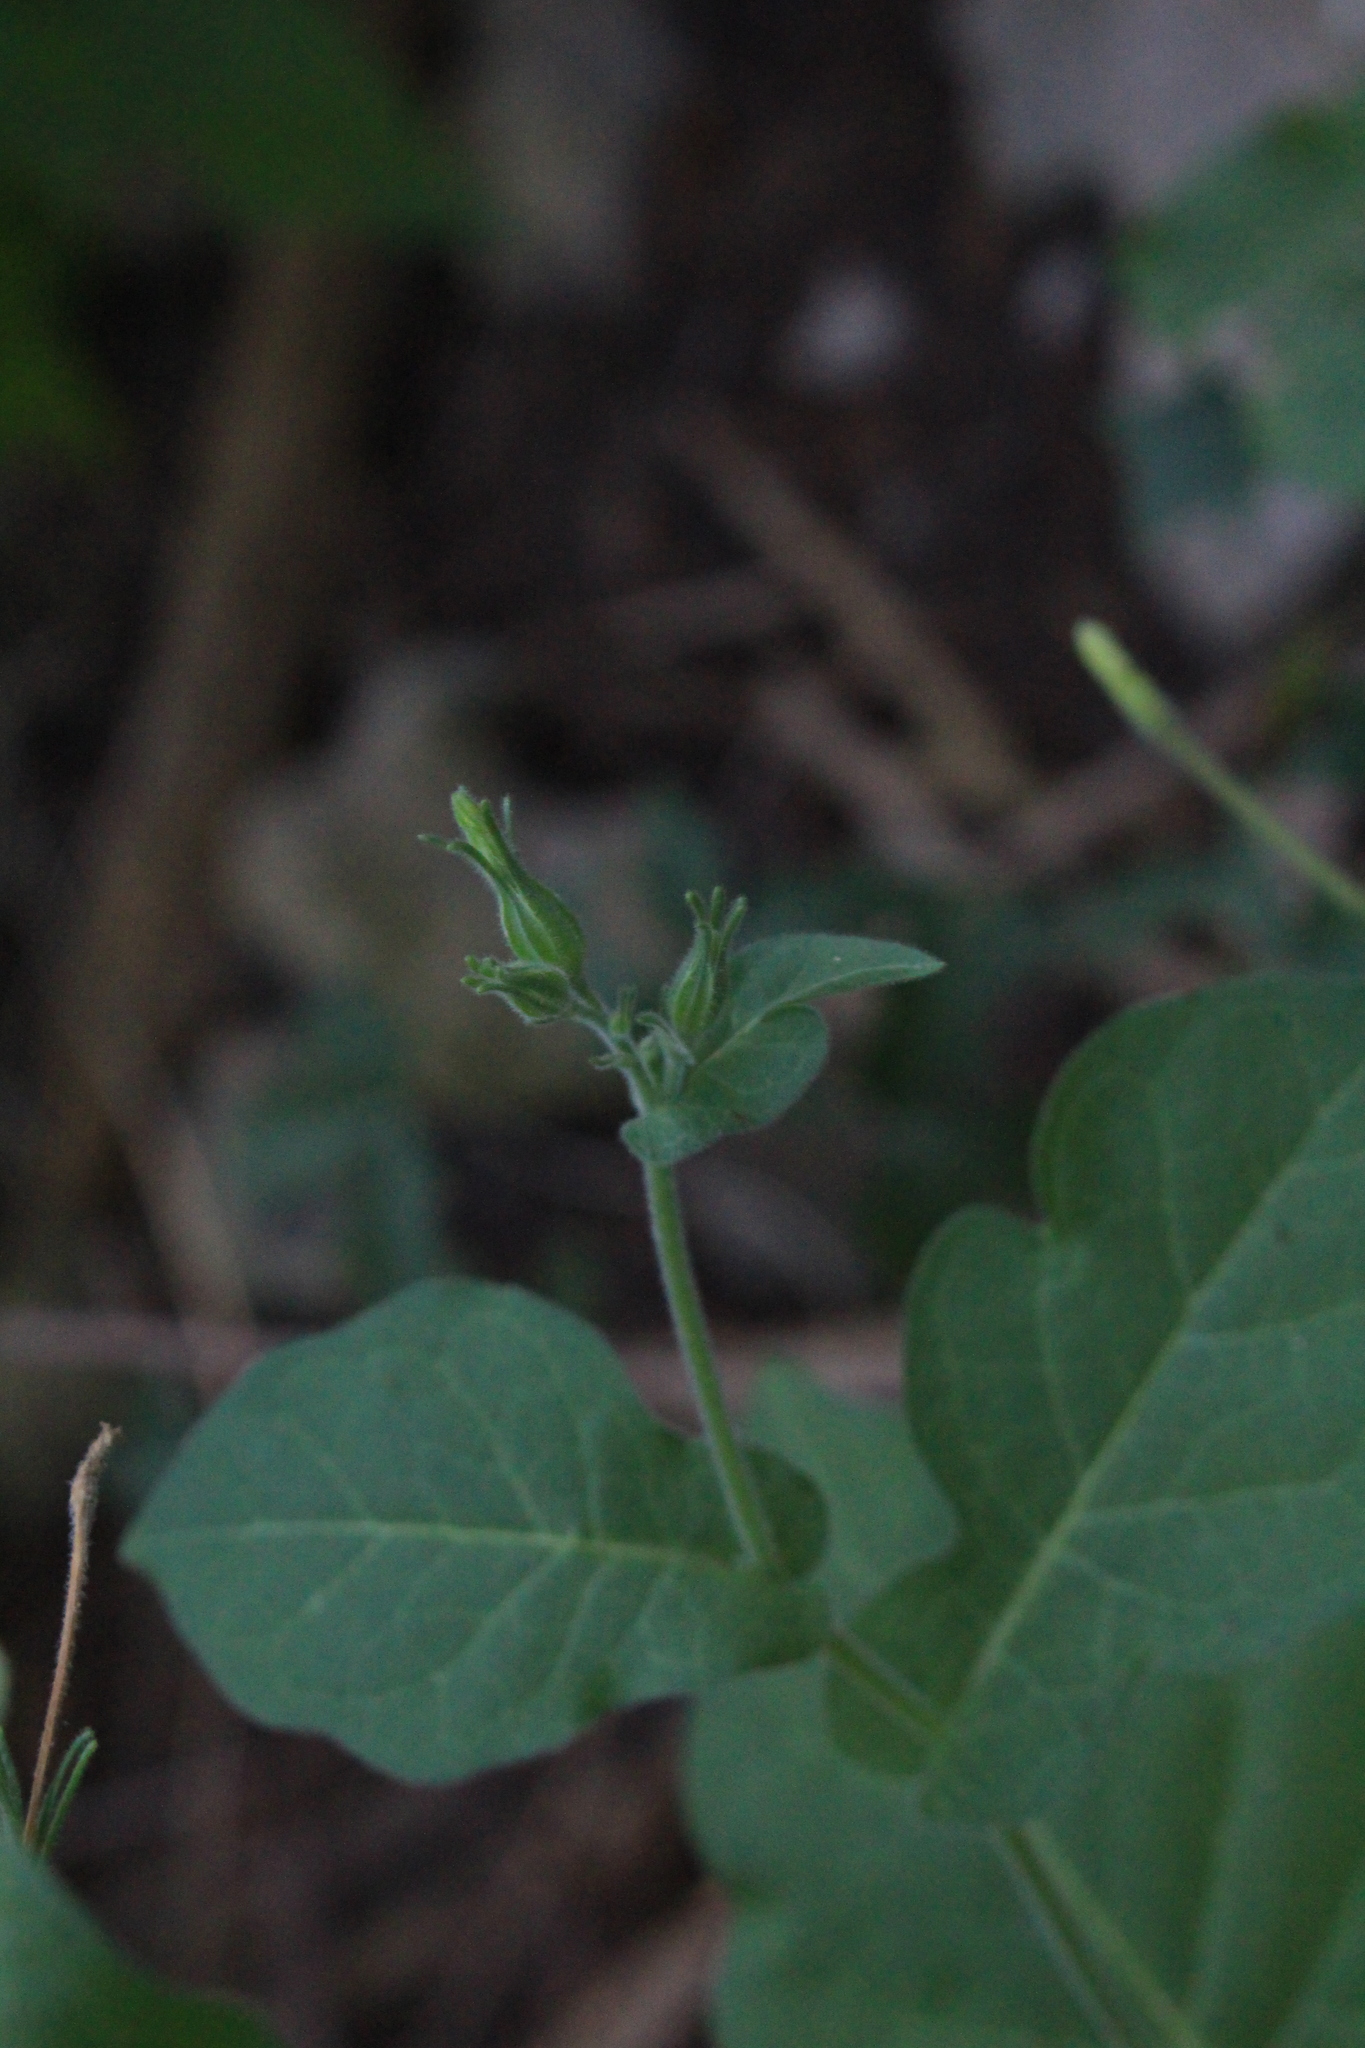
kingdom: Plantae
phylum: Tracheophyta
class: Magnoliopsida
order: Solanales
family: Solanaceae
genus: Nicotiana
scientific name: Nicotiana repanda
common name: Fiddle-leaf tobacco
